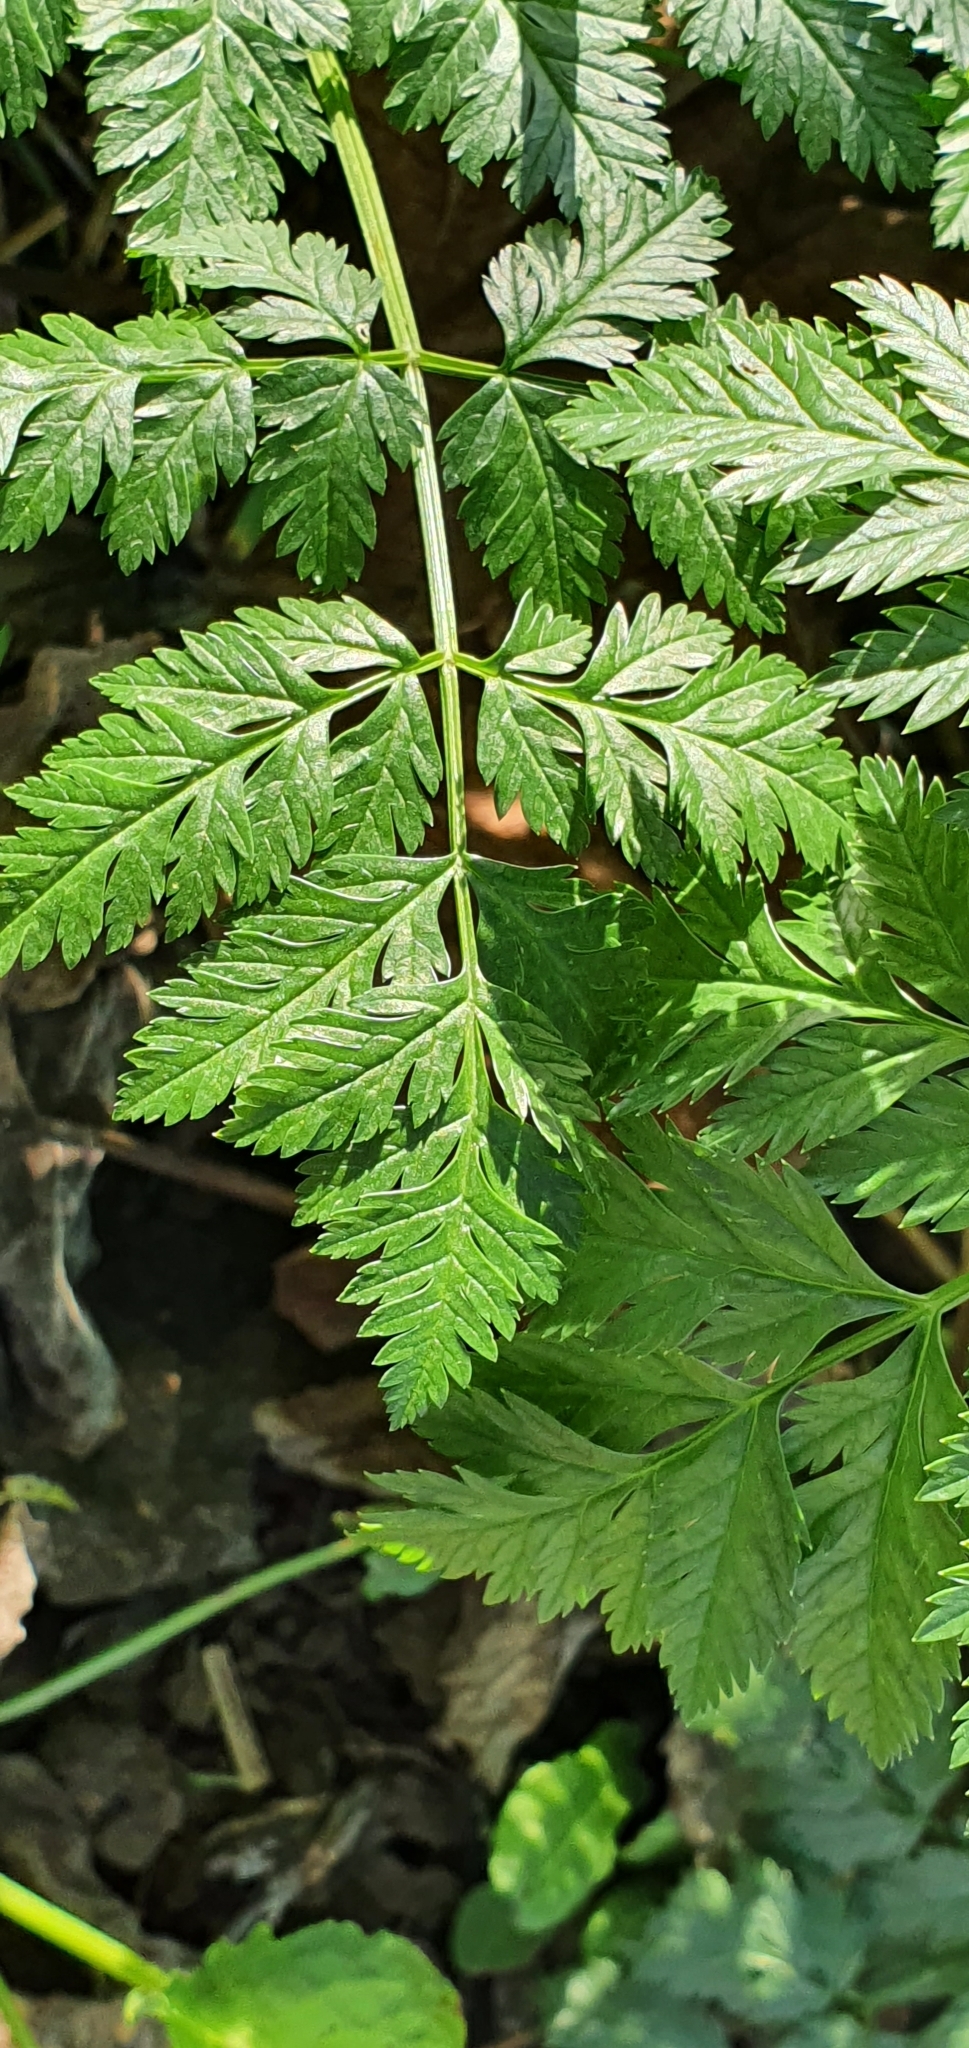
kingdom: Plantae
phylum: Tracheophyta
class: Magnoliopsida
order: Apiales
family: Apiaceae
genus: Conium
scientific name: Conium maculatum
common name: Hemlock
